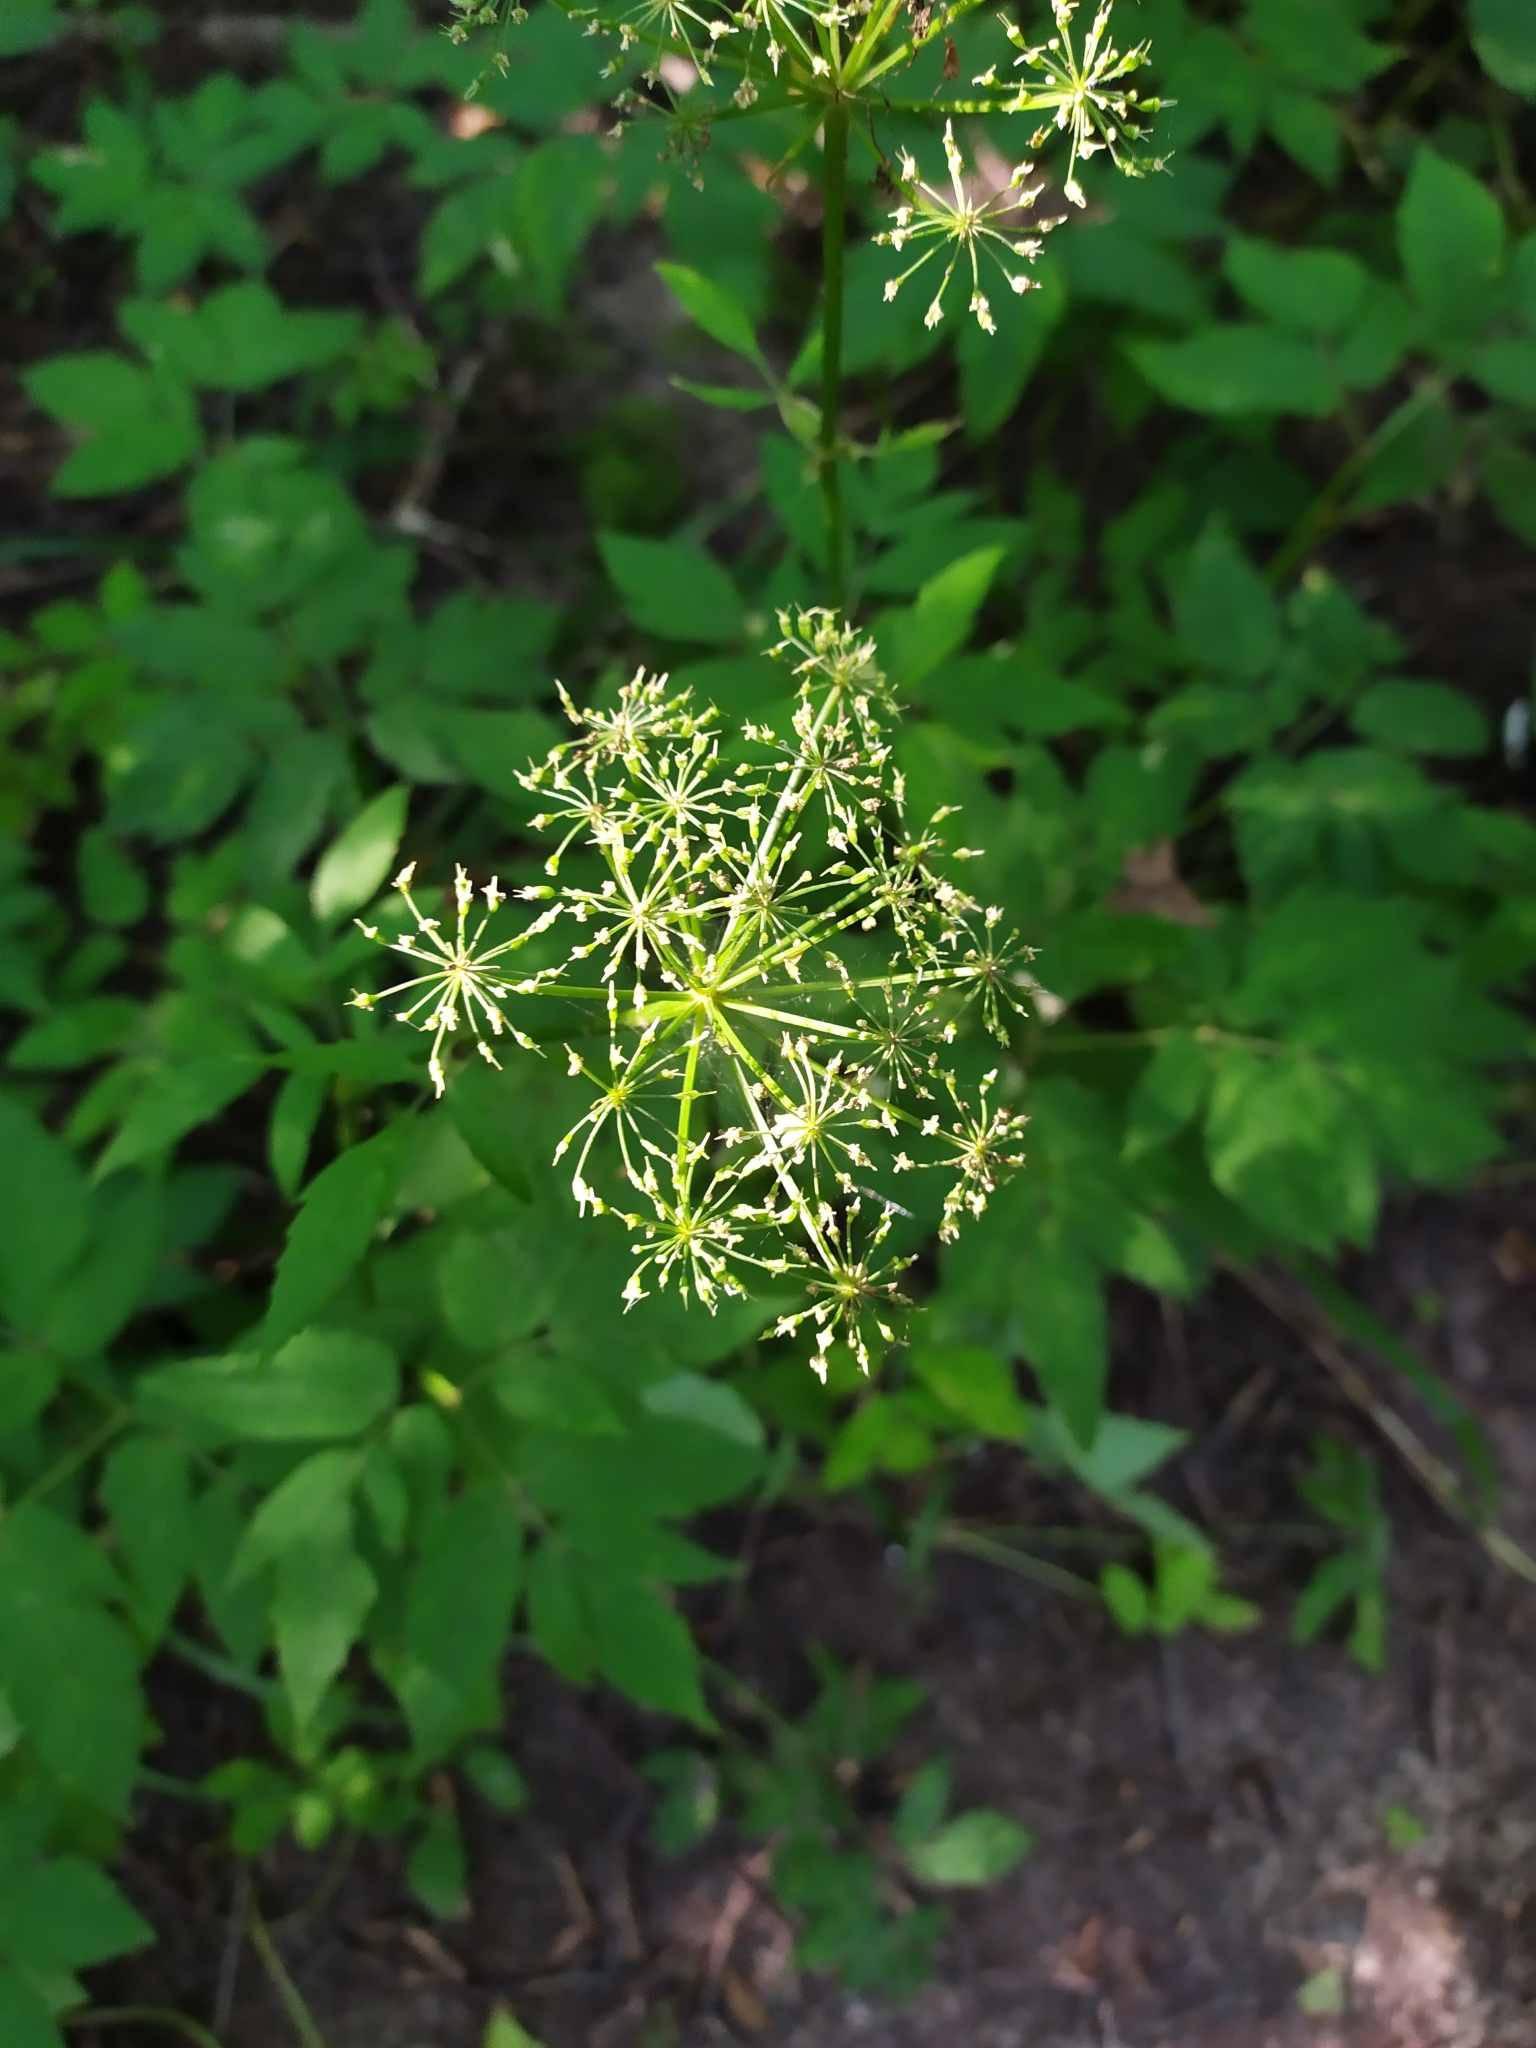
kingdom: Plantae
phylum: Tracheophyta
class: Magnoliopsida
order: Apiales
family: Apiaceae
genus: Aegopodium
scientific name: Aegopodium podagraria
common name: Ground-elder
